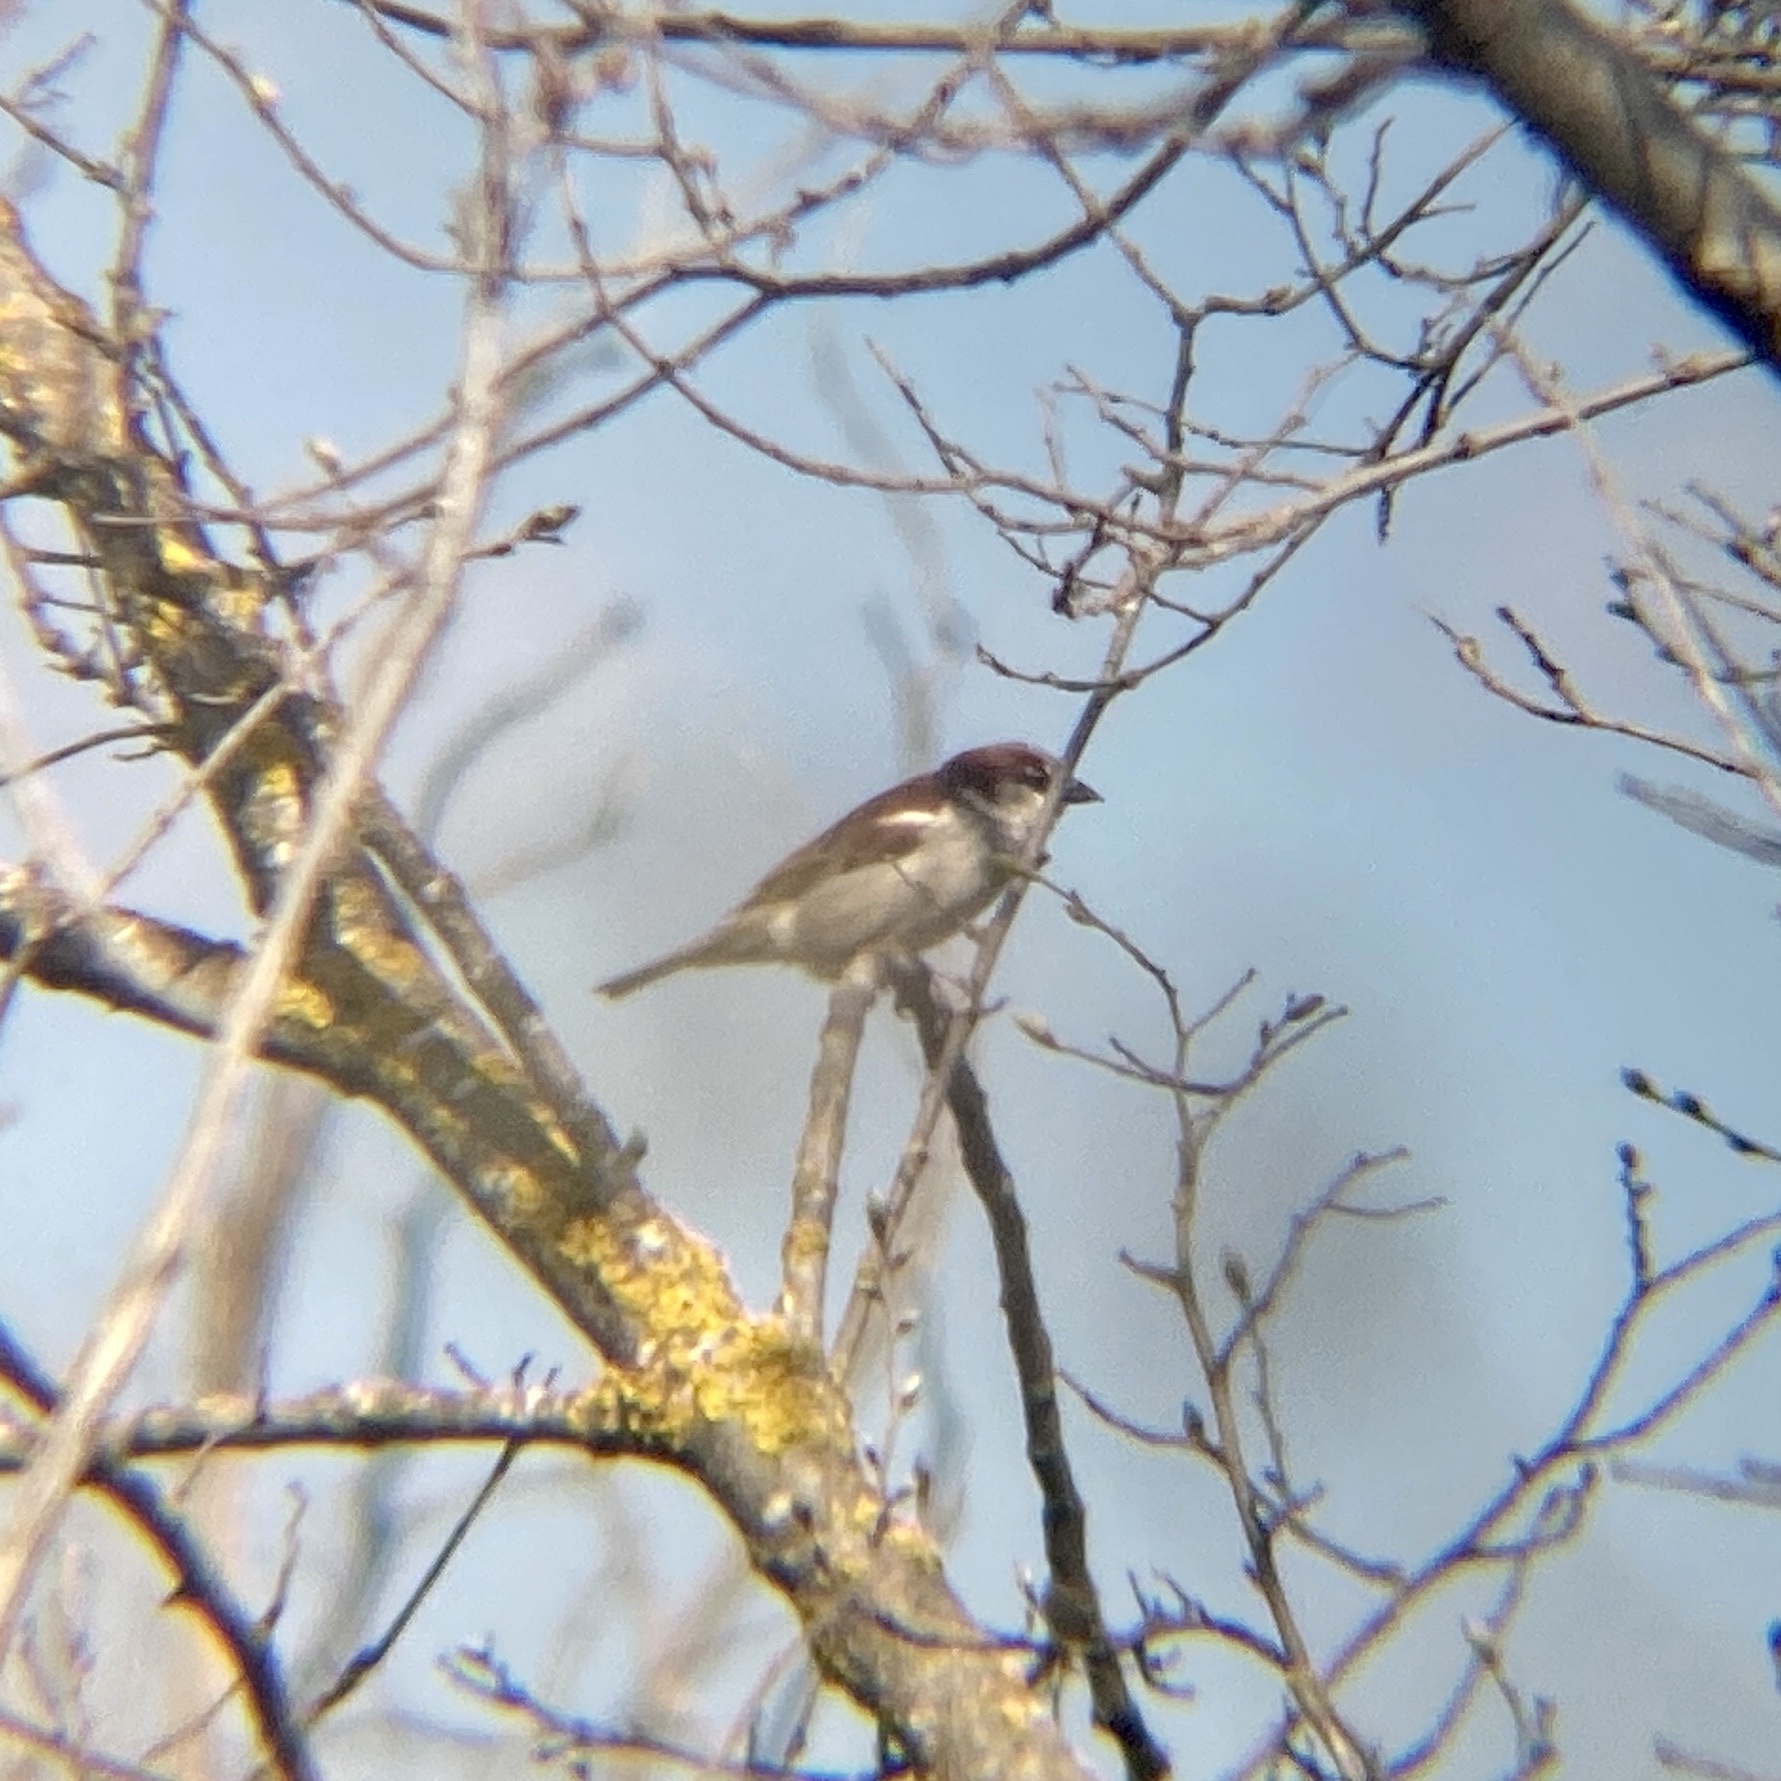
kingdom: Animalia
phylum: Chordata
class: Aves
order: Passeriformes
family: Passeridae
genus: Passer
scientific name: Passer domesticus
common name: House sparrow
